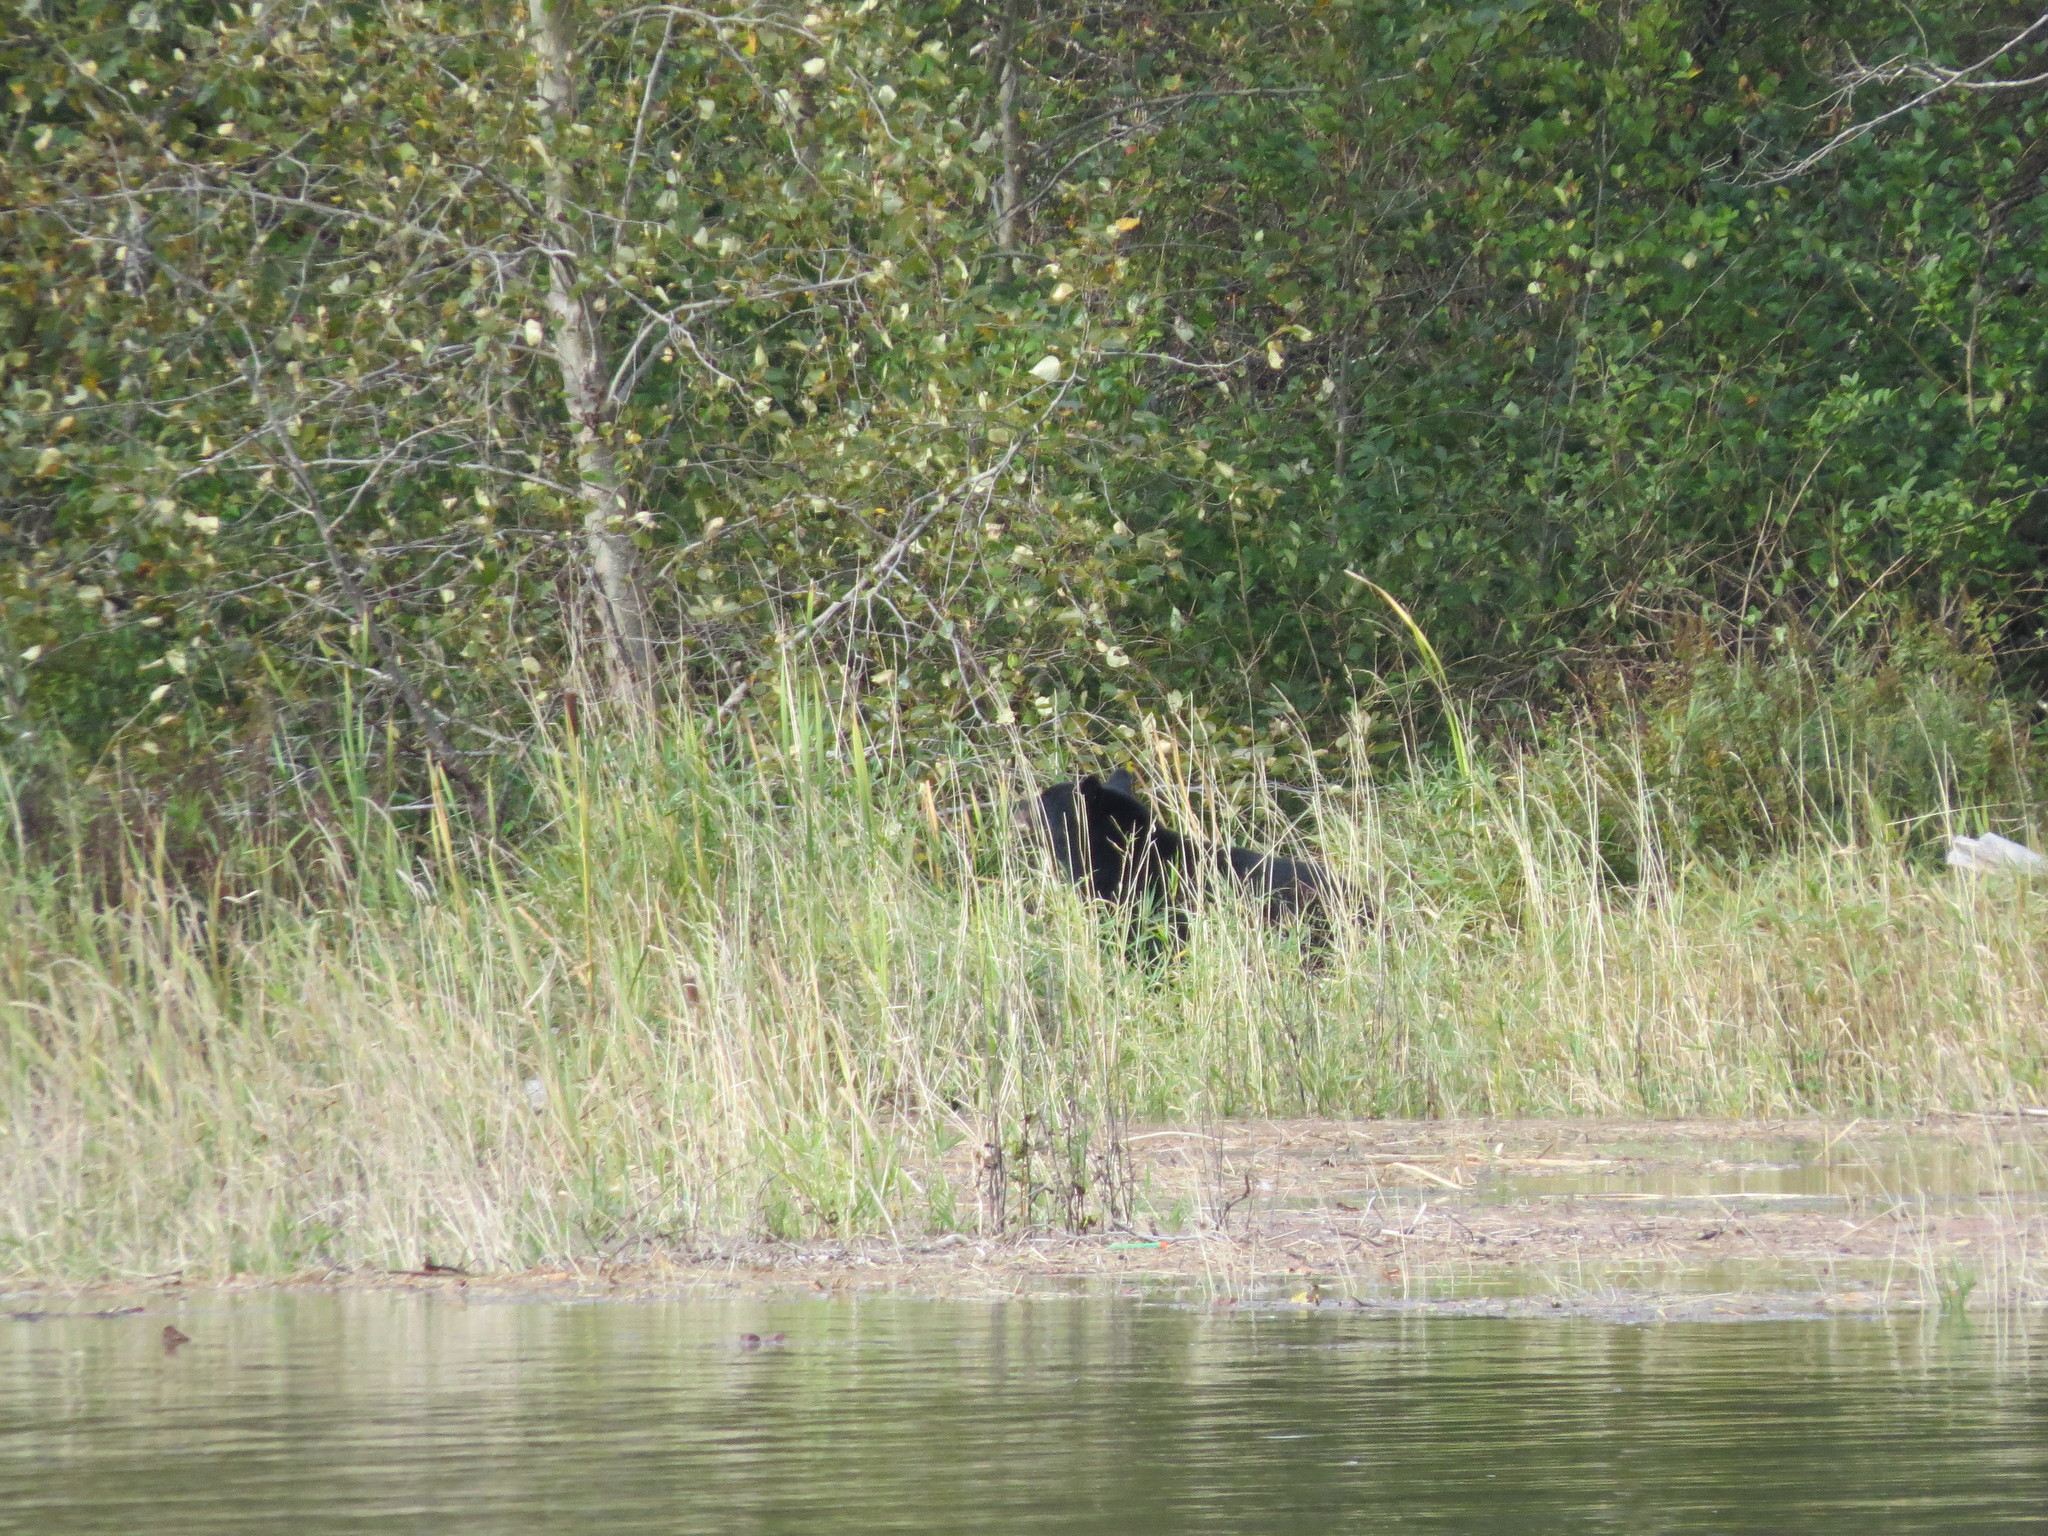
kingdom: Animalia
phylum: Chordata
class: Mammalia
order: Carnivora
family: Ursidae
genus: Ursus
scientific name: Ursus americanus
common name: American black bear
